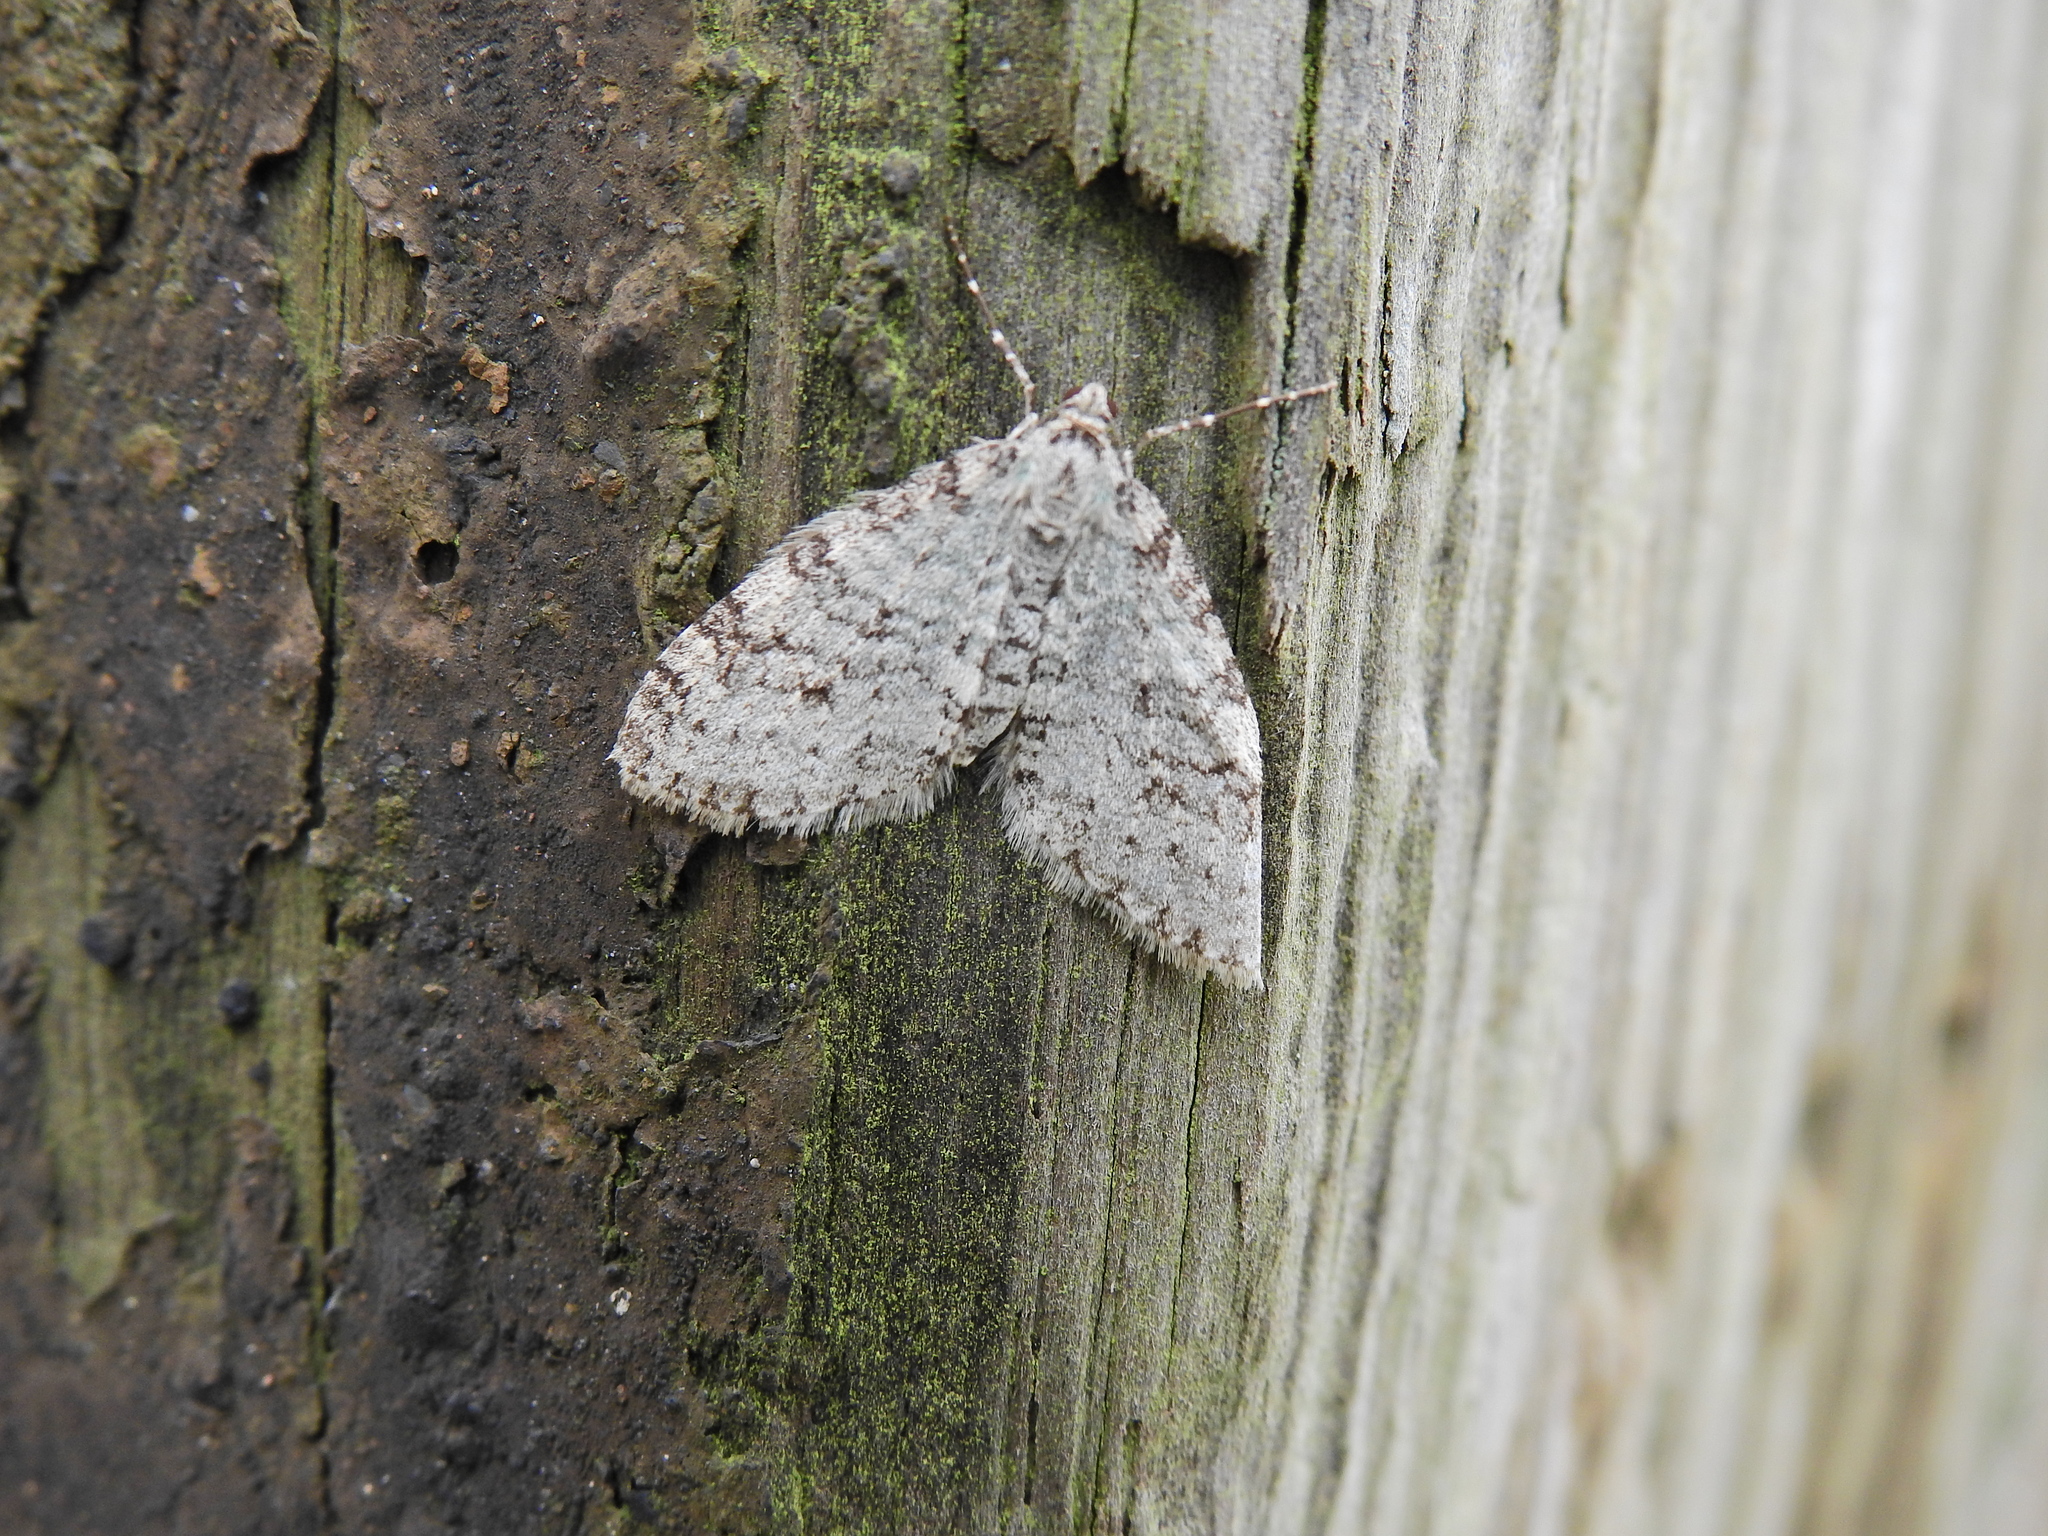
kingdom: Animalia
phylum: Arthropoda
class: Insecta
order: Lepidoptera
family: Geometridae
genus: Trichopteryx
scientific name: Trichopteryx carpinata
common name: Early tooth-striped
